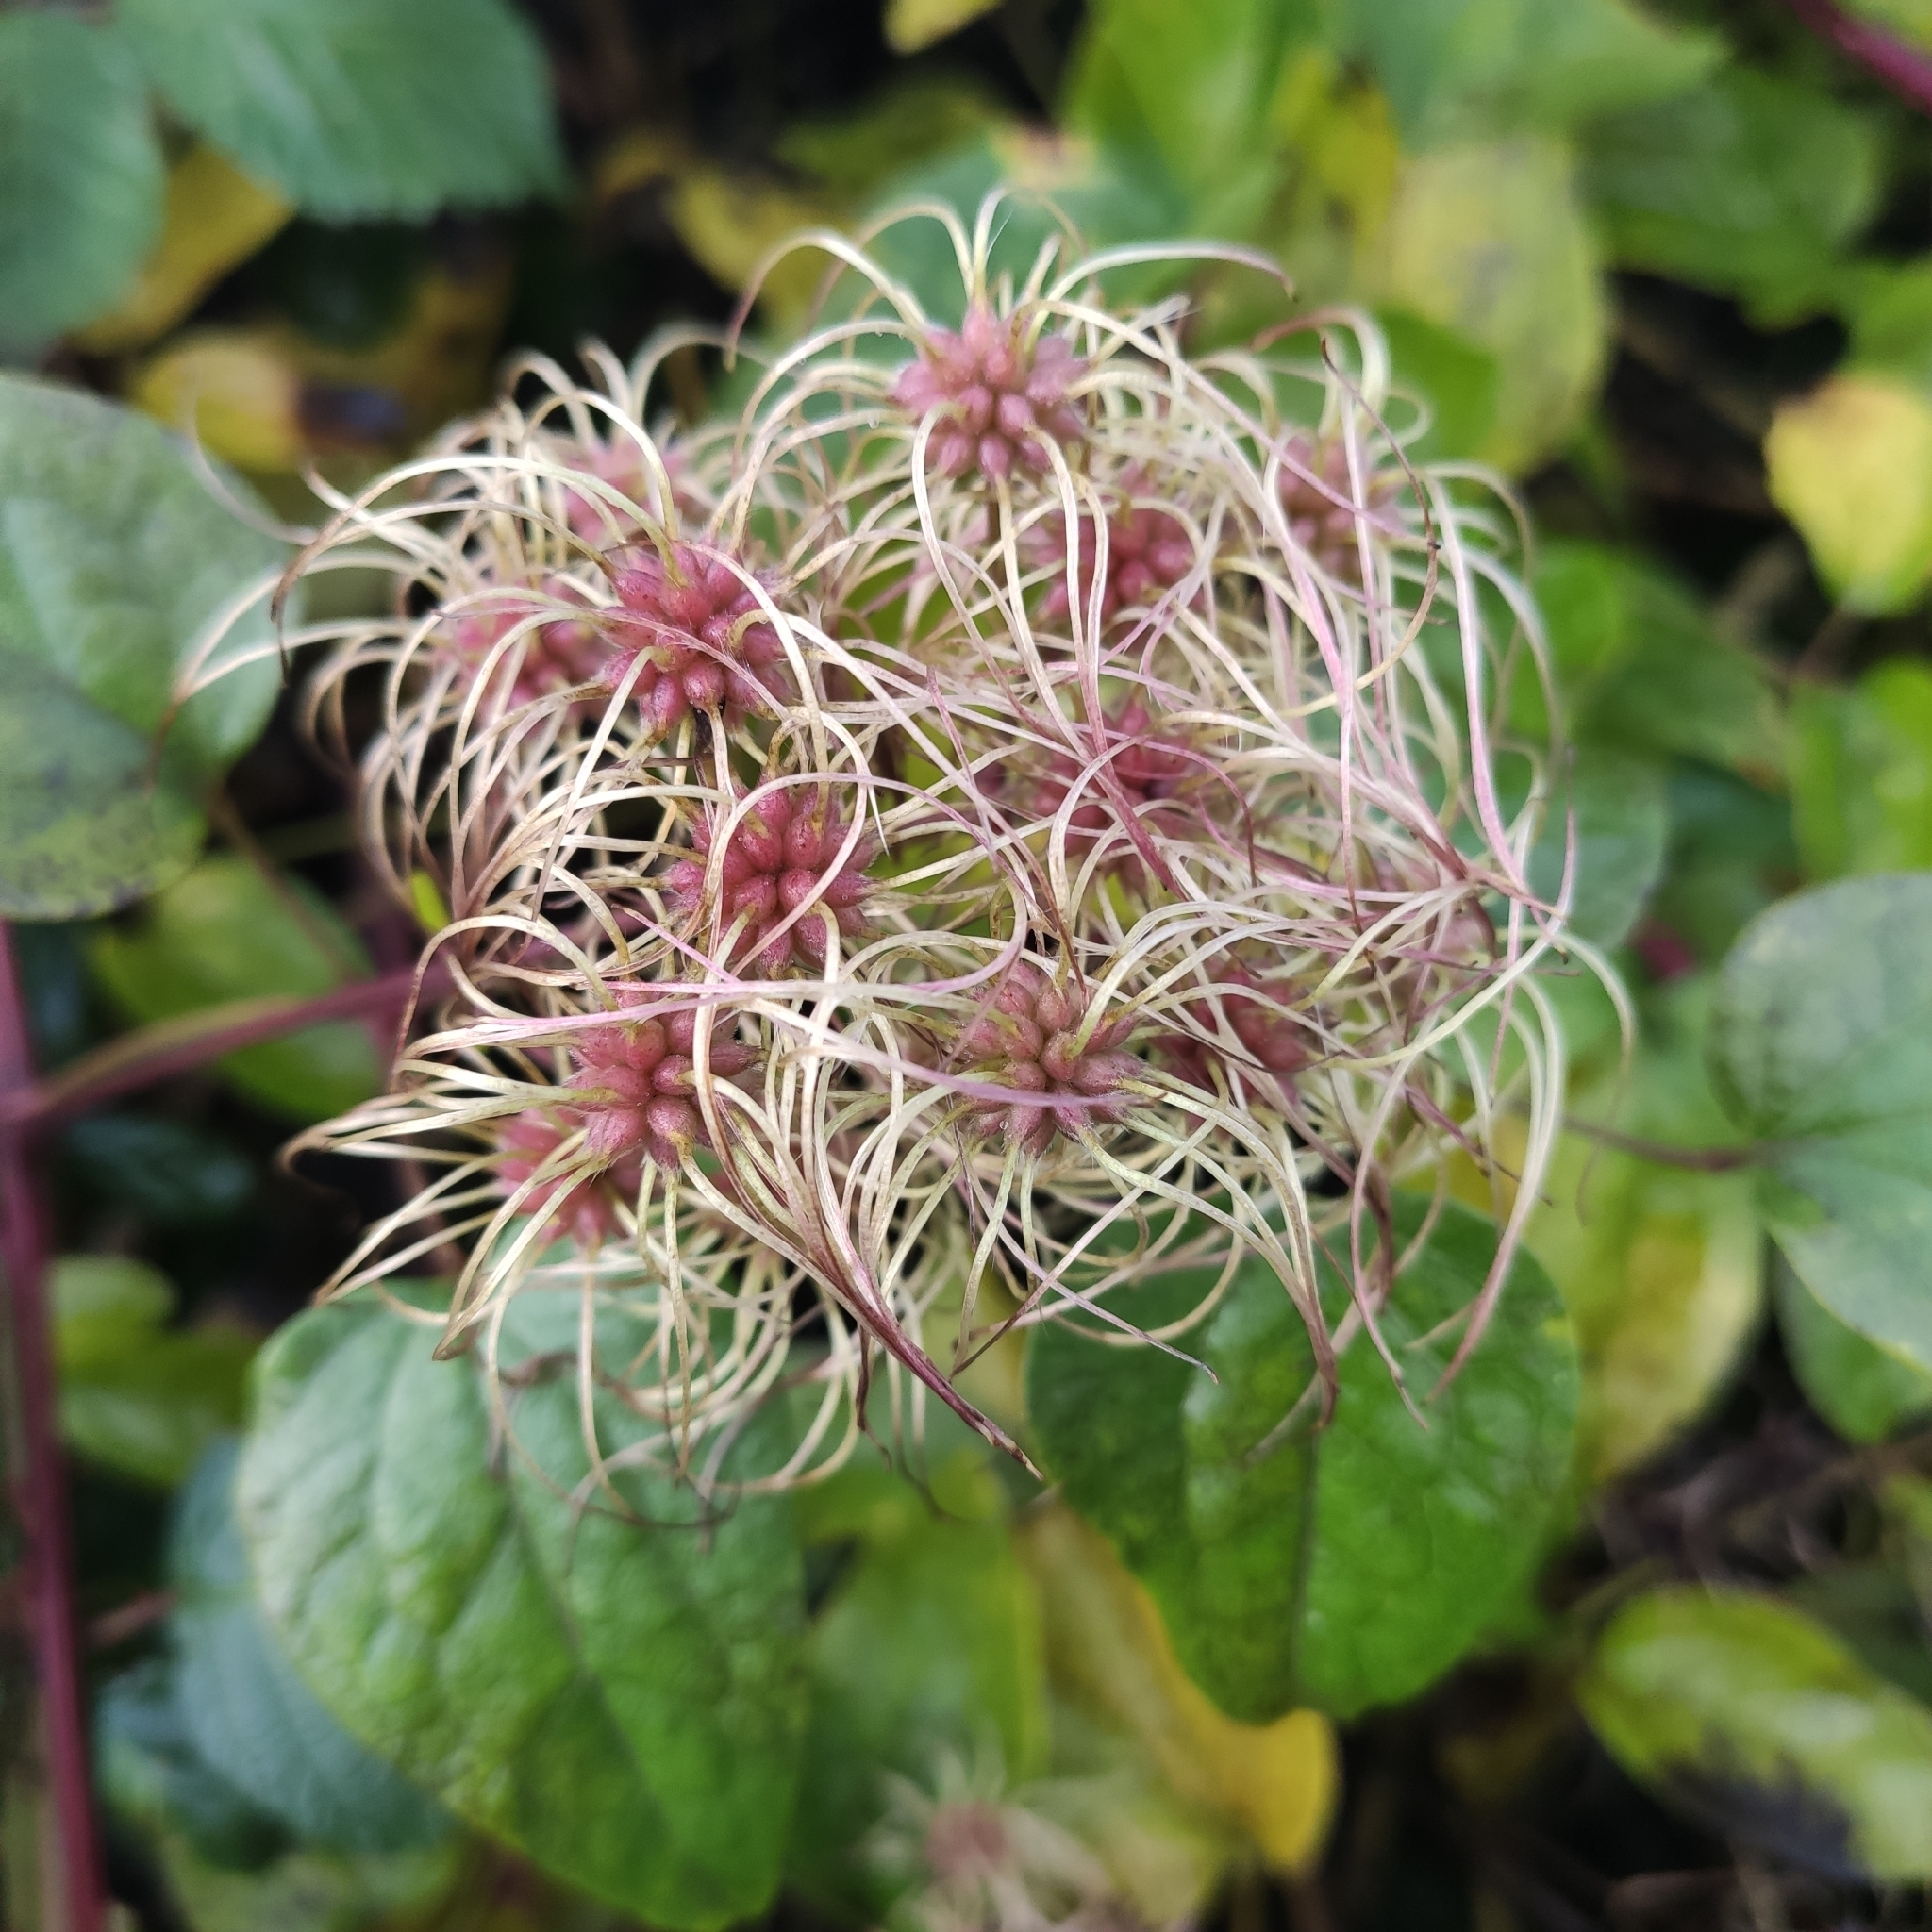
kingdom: Plantae
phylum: Tracheophyta
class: Magnoliopsida
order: Ranunculales
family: Ranunculaceae
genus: Clematis
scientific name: Clematis vitalba
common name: Evergreen clematis
